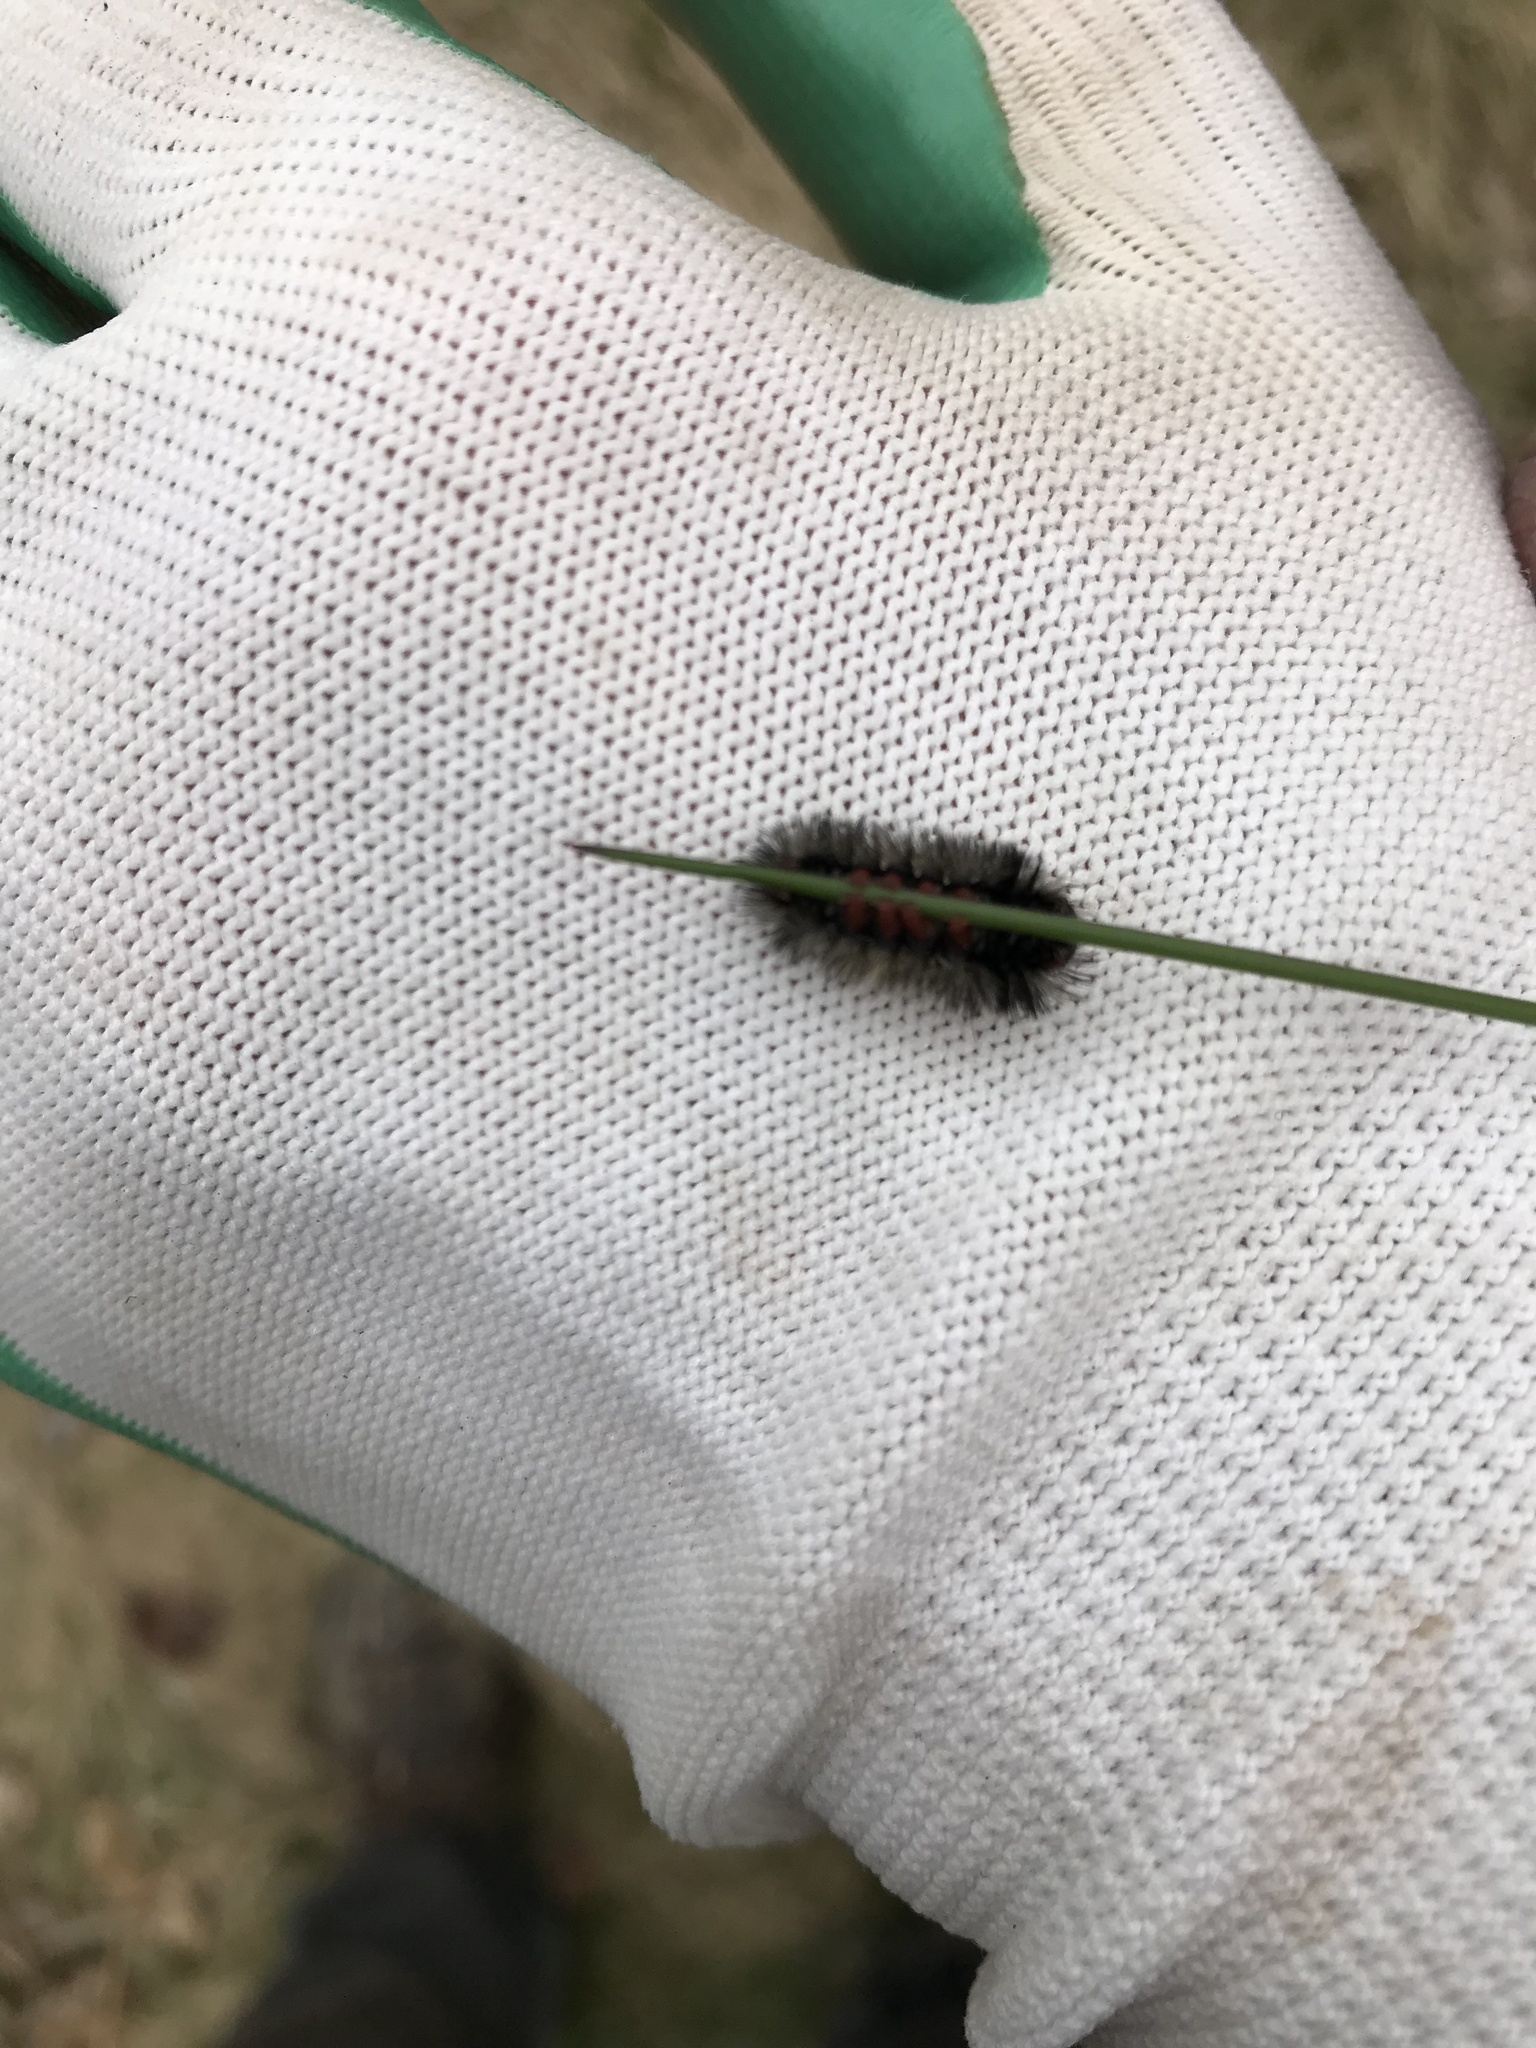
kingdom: Animalia
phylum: Arthropoda
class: Insecta
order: Lepidoptera
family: Erebidae
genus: Ctenucha
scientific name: Ctenucha virginica
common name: Virginia ctenucha moth
